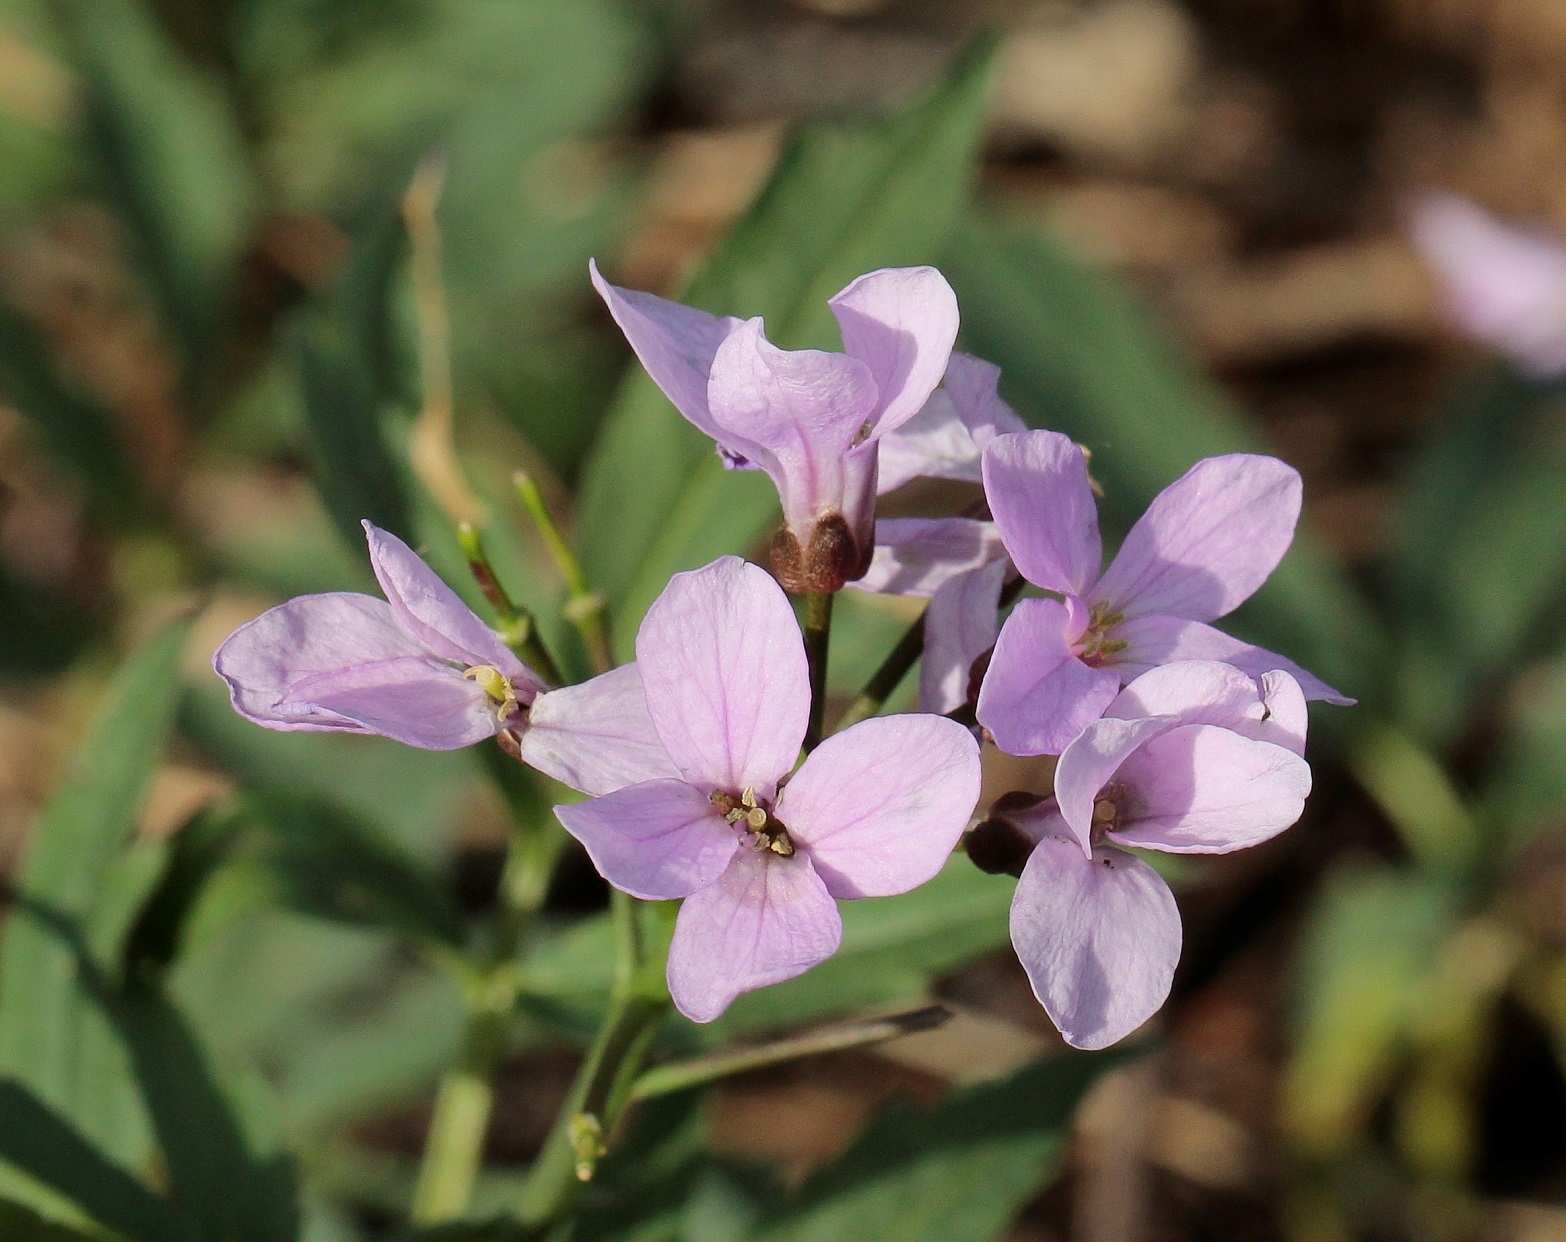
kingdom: Plantae
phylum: Tracheophyta
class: Magnoliopsida
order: Brassicales
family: Brassicaceae
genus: Cardamine
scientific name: Cardamine quinquefolia
